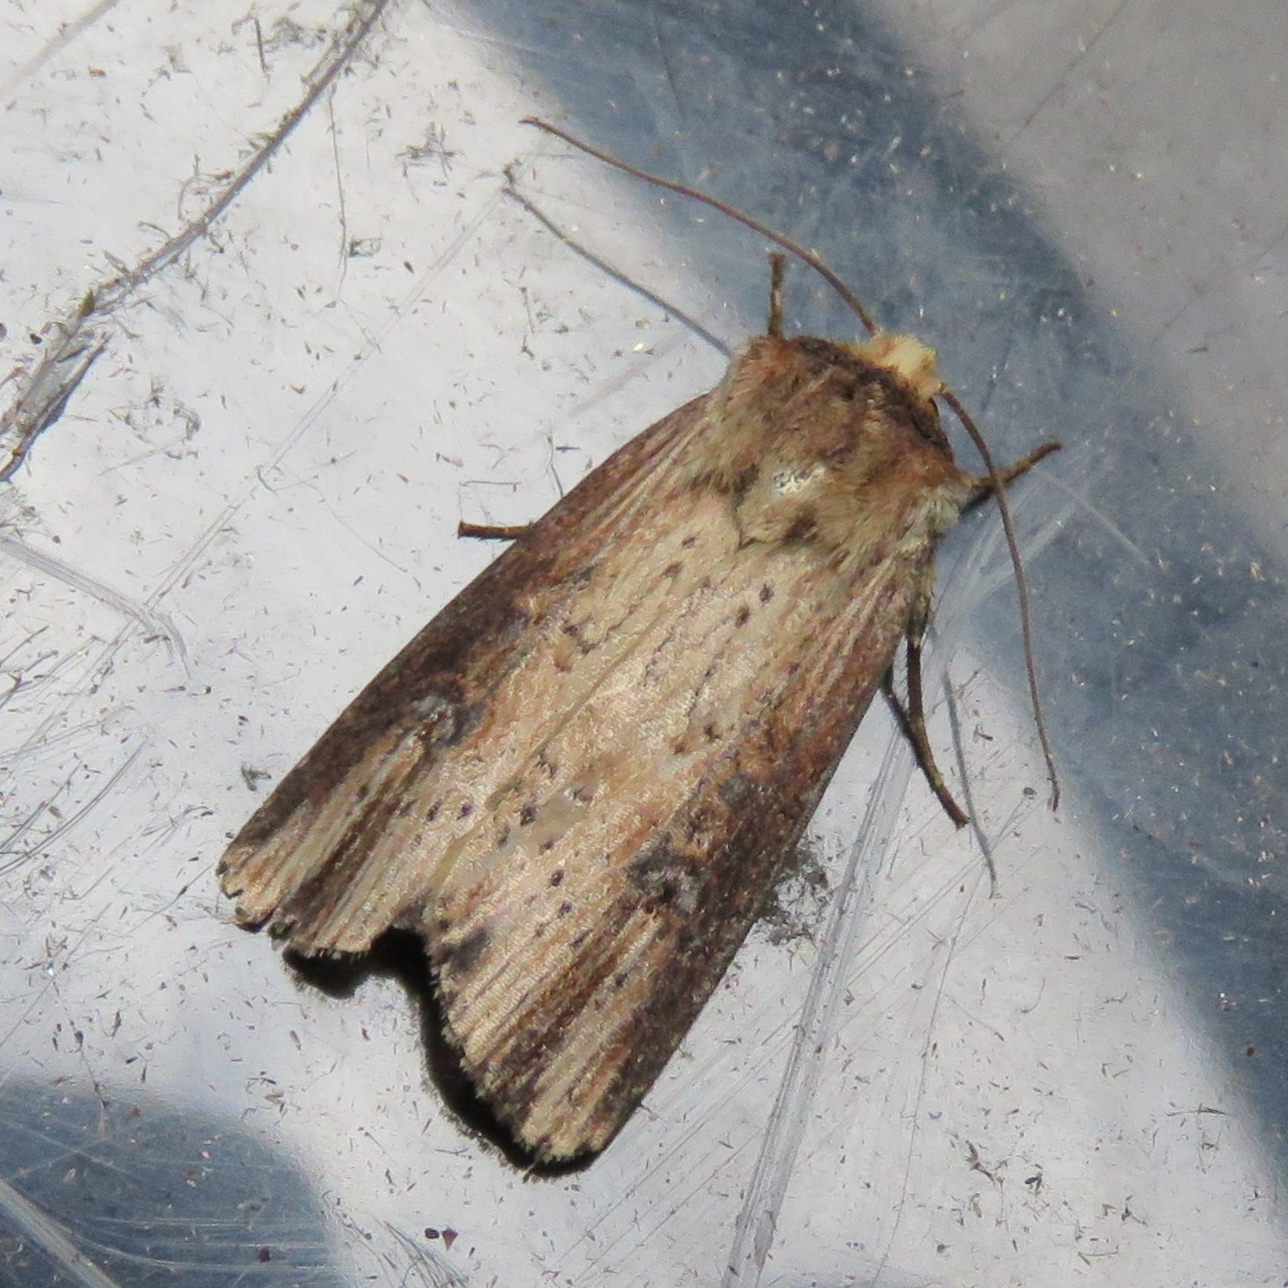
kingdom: Animalia
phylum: Arthropoda
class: Insecta
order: Lepidoptera
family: Noctuidae
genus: Axylia
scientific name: Axylia putris
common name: Flame
